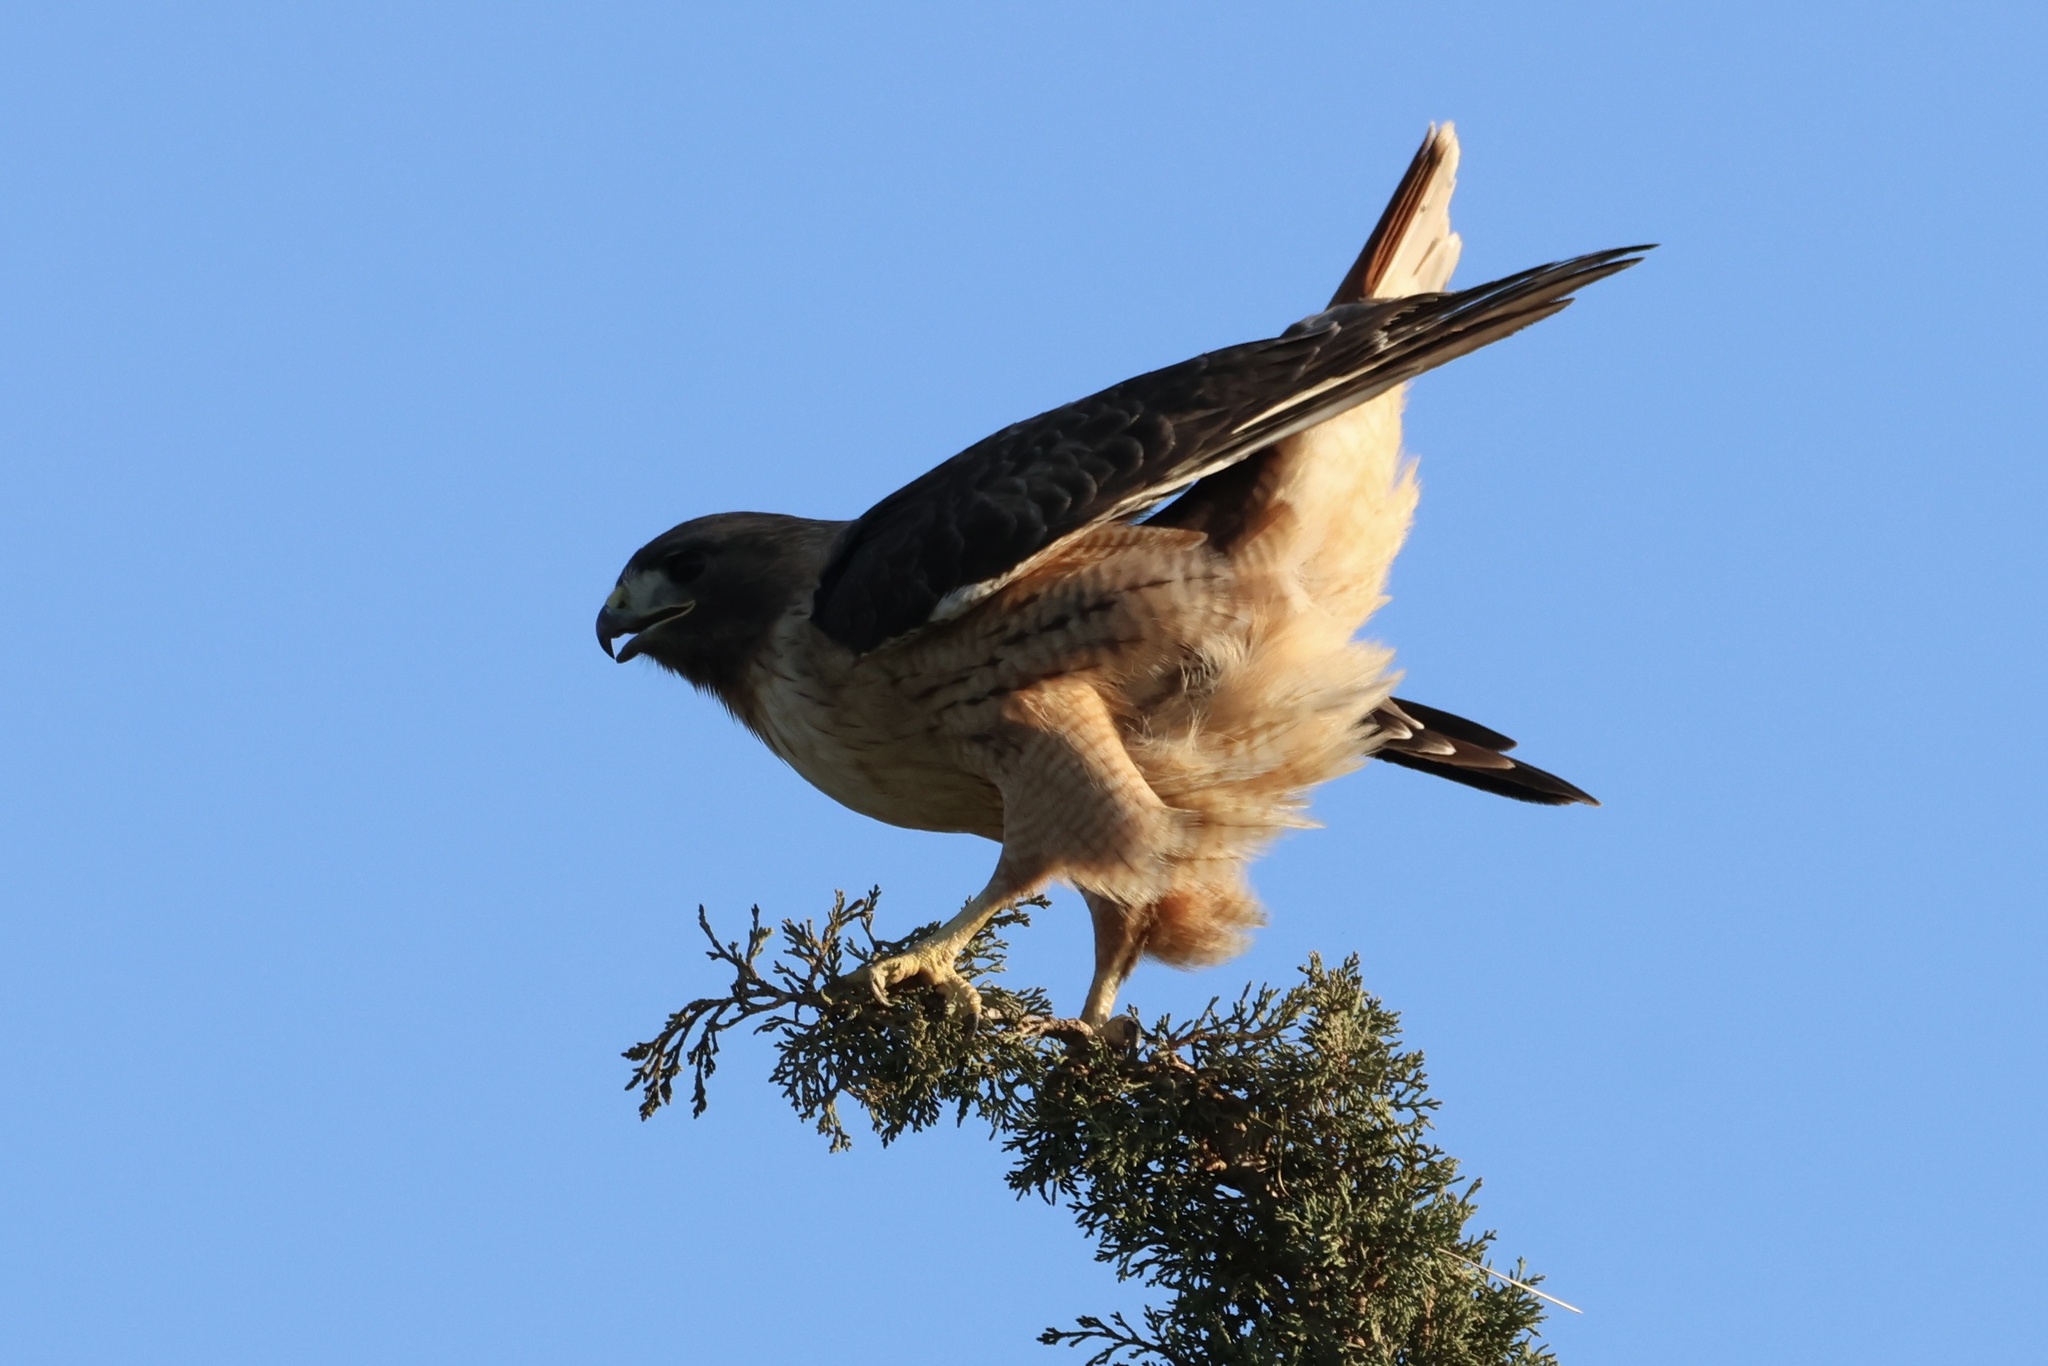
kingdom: Animalia
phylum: Chordata
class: Aves
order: Accipitriformes
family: Accipitridae
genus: Buteo
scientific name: Buteo jamaicensis
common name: Red-tailed hawk
